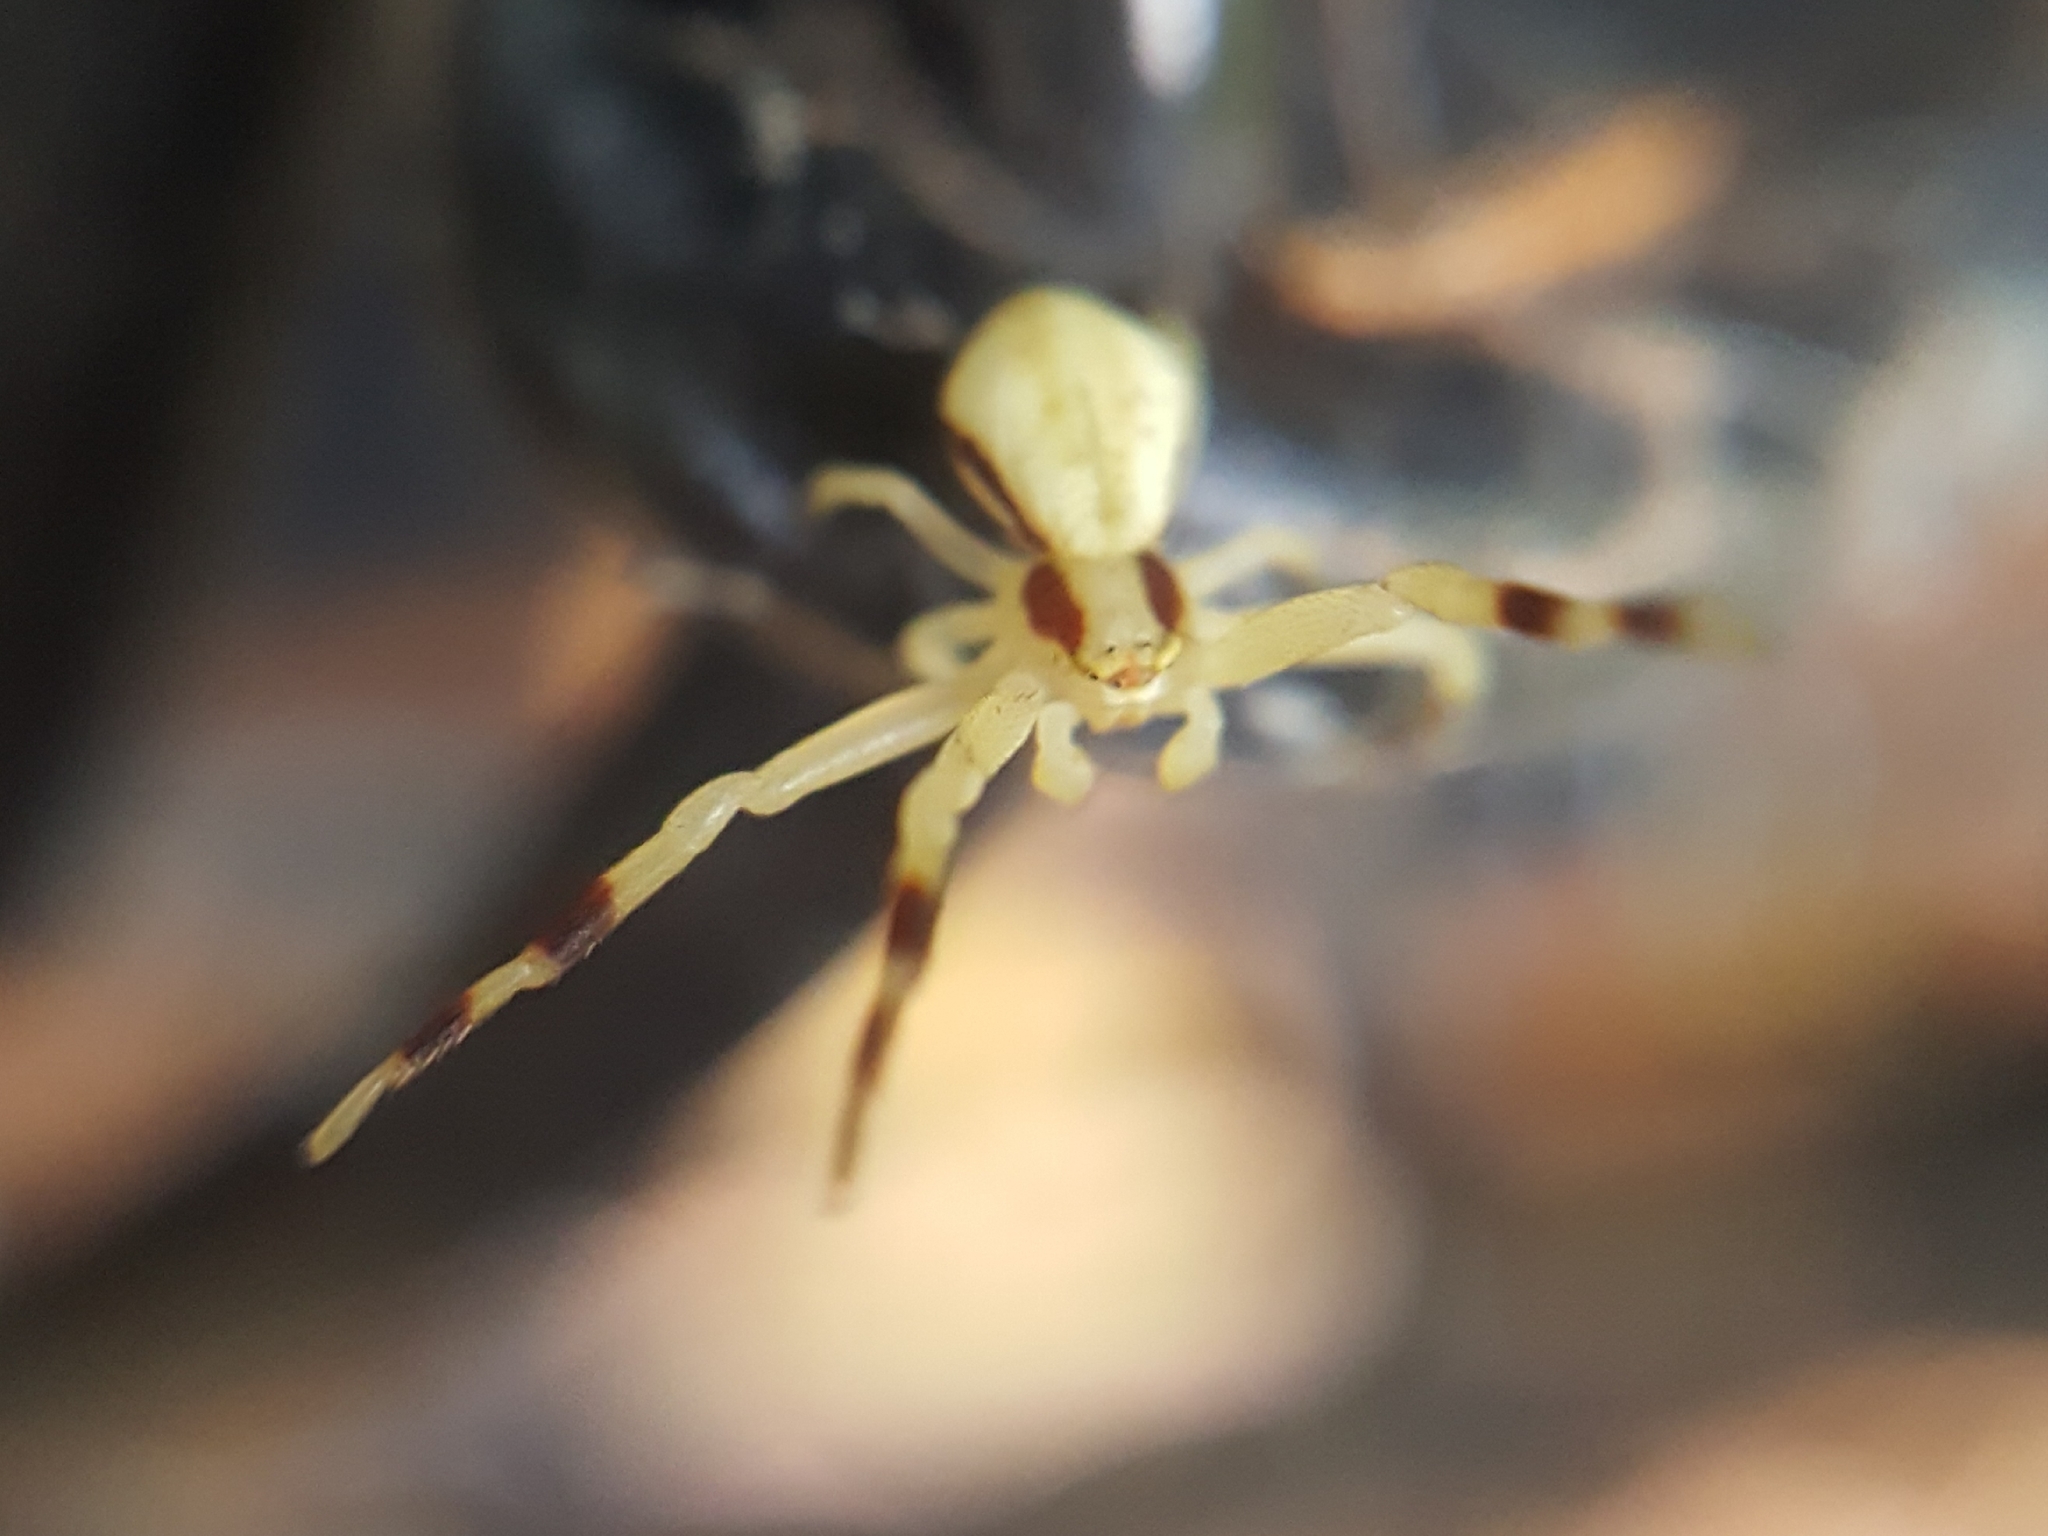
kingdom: Animalia
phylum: Arthropoda
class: Arachnida
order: Araneae
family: Thomisidae
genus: Misumena
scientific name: Misumena vatia
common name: Goldenrod crab spider
